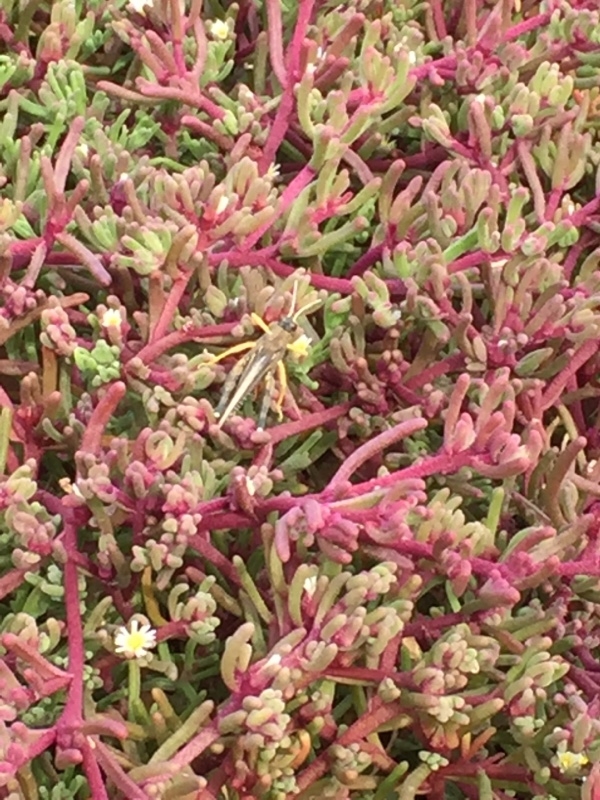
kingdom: Animalia
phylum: Arthropoda
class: Insecta
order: Orthoptera
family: Dericorythidae
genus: Dericorys
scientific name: Dericorys lobata
